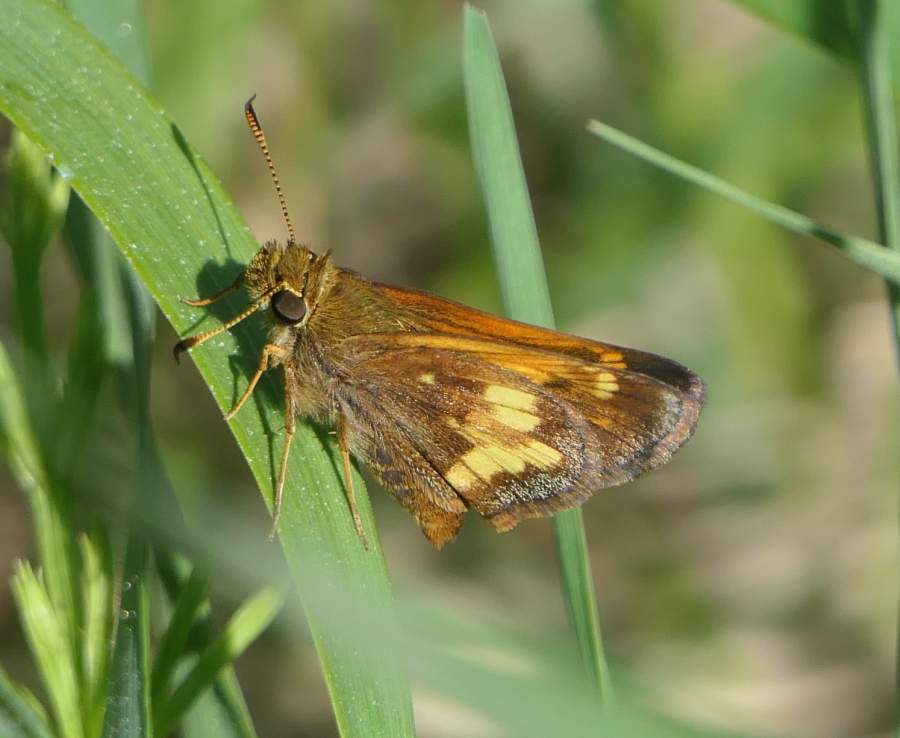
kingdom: Animalia
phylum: Arthropoda
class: Insecta
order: Lepidoptera
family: Hesperiidae
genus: Lon
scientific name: Lon hobomok
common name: Hobomok skipper
